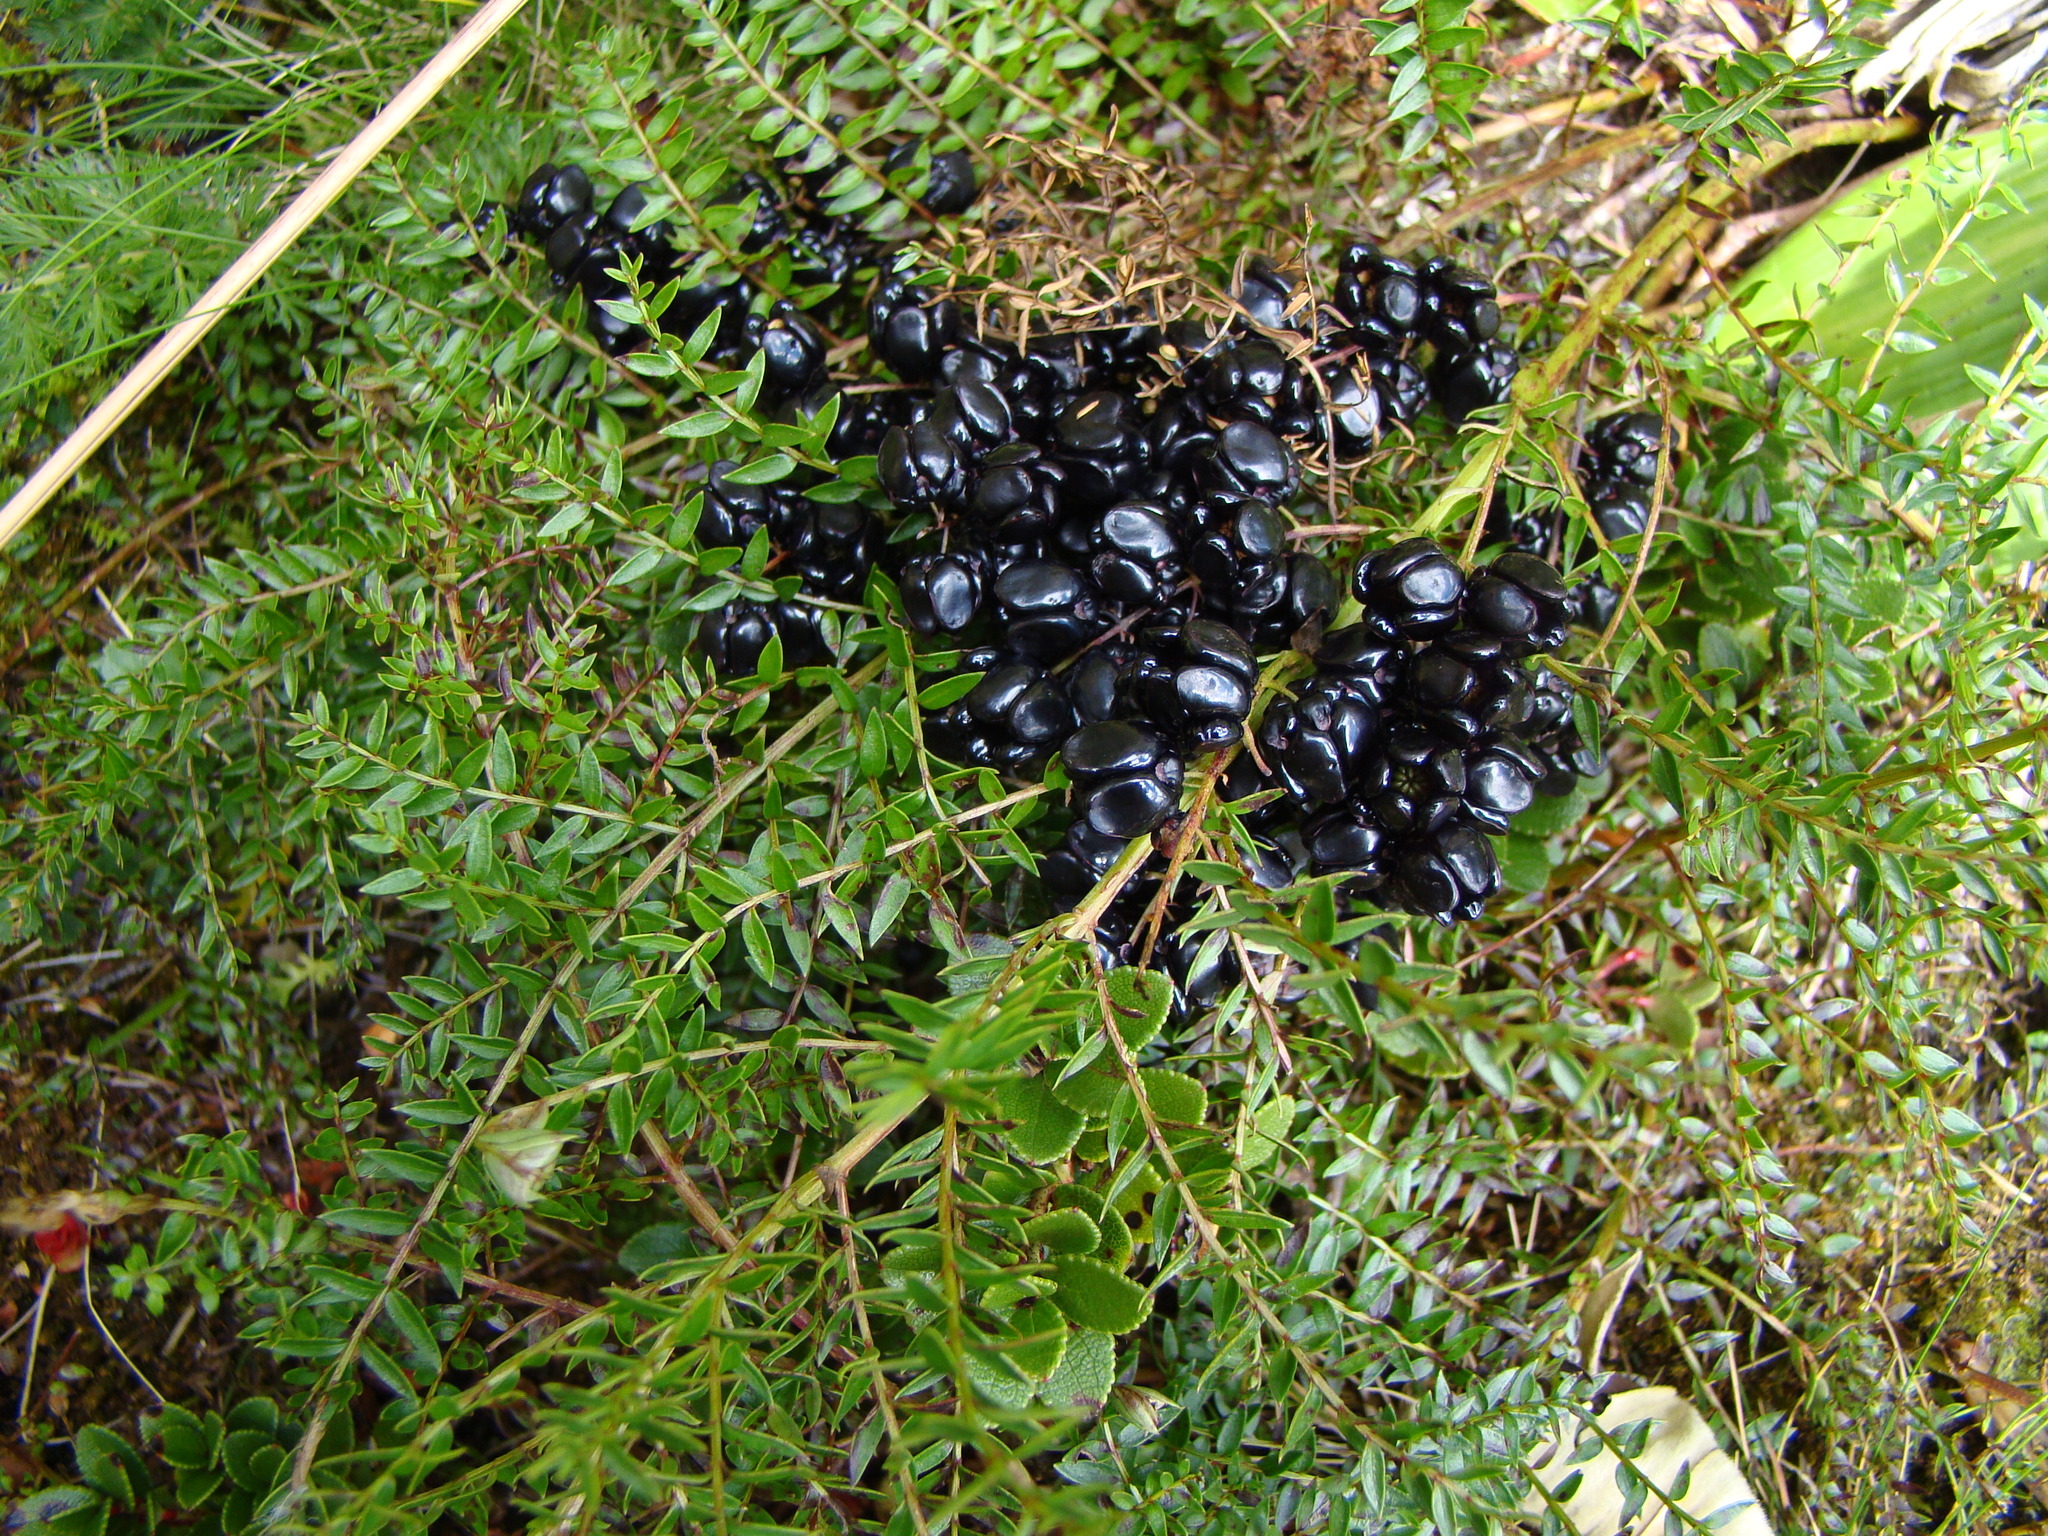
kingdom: Plantae
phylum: Tracheophyta
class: Magnoliopsida
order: Cucurbitales
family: Coriariaceae
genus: Coriaria
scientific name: Coriaria plumosa
